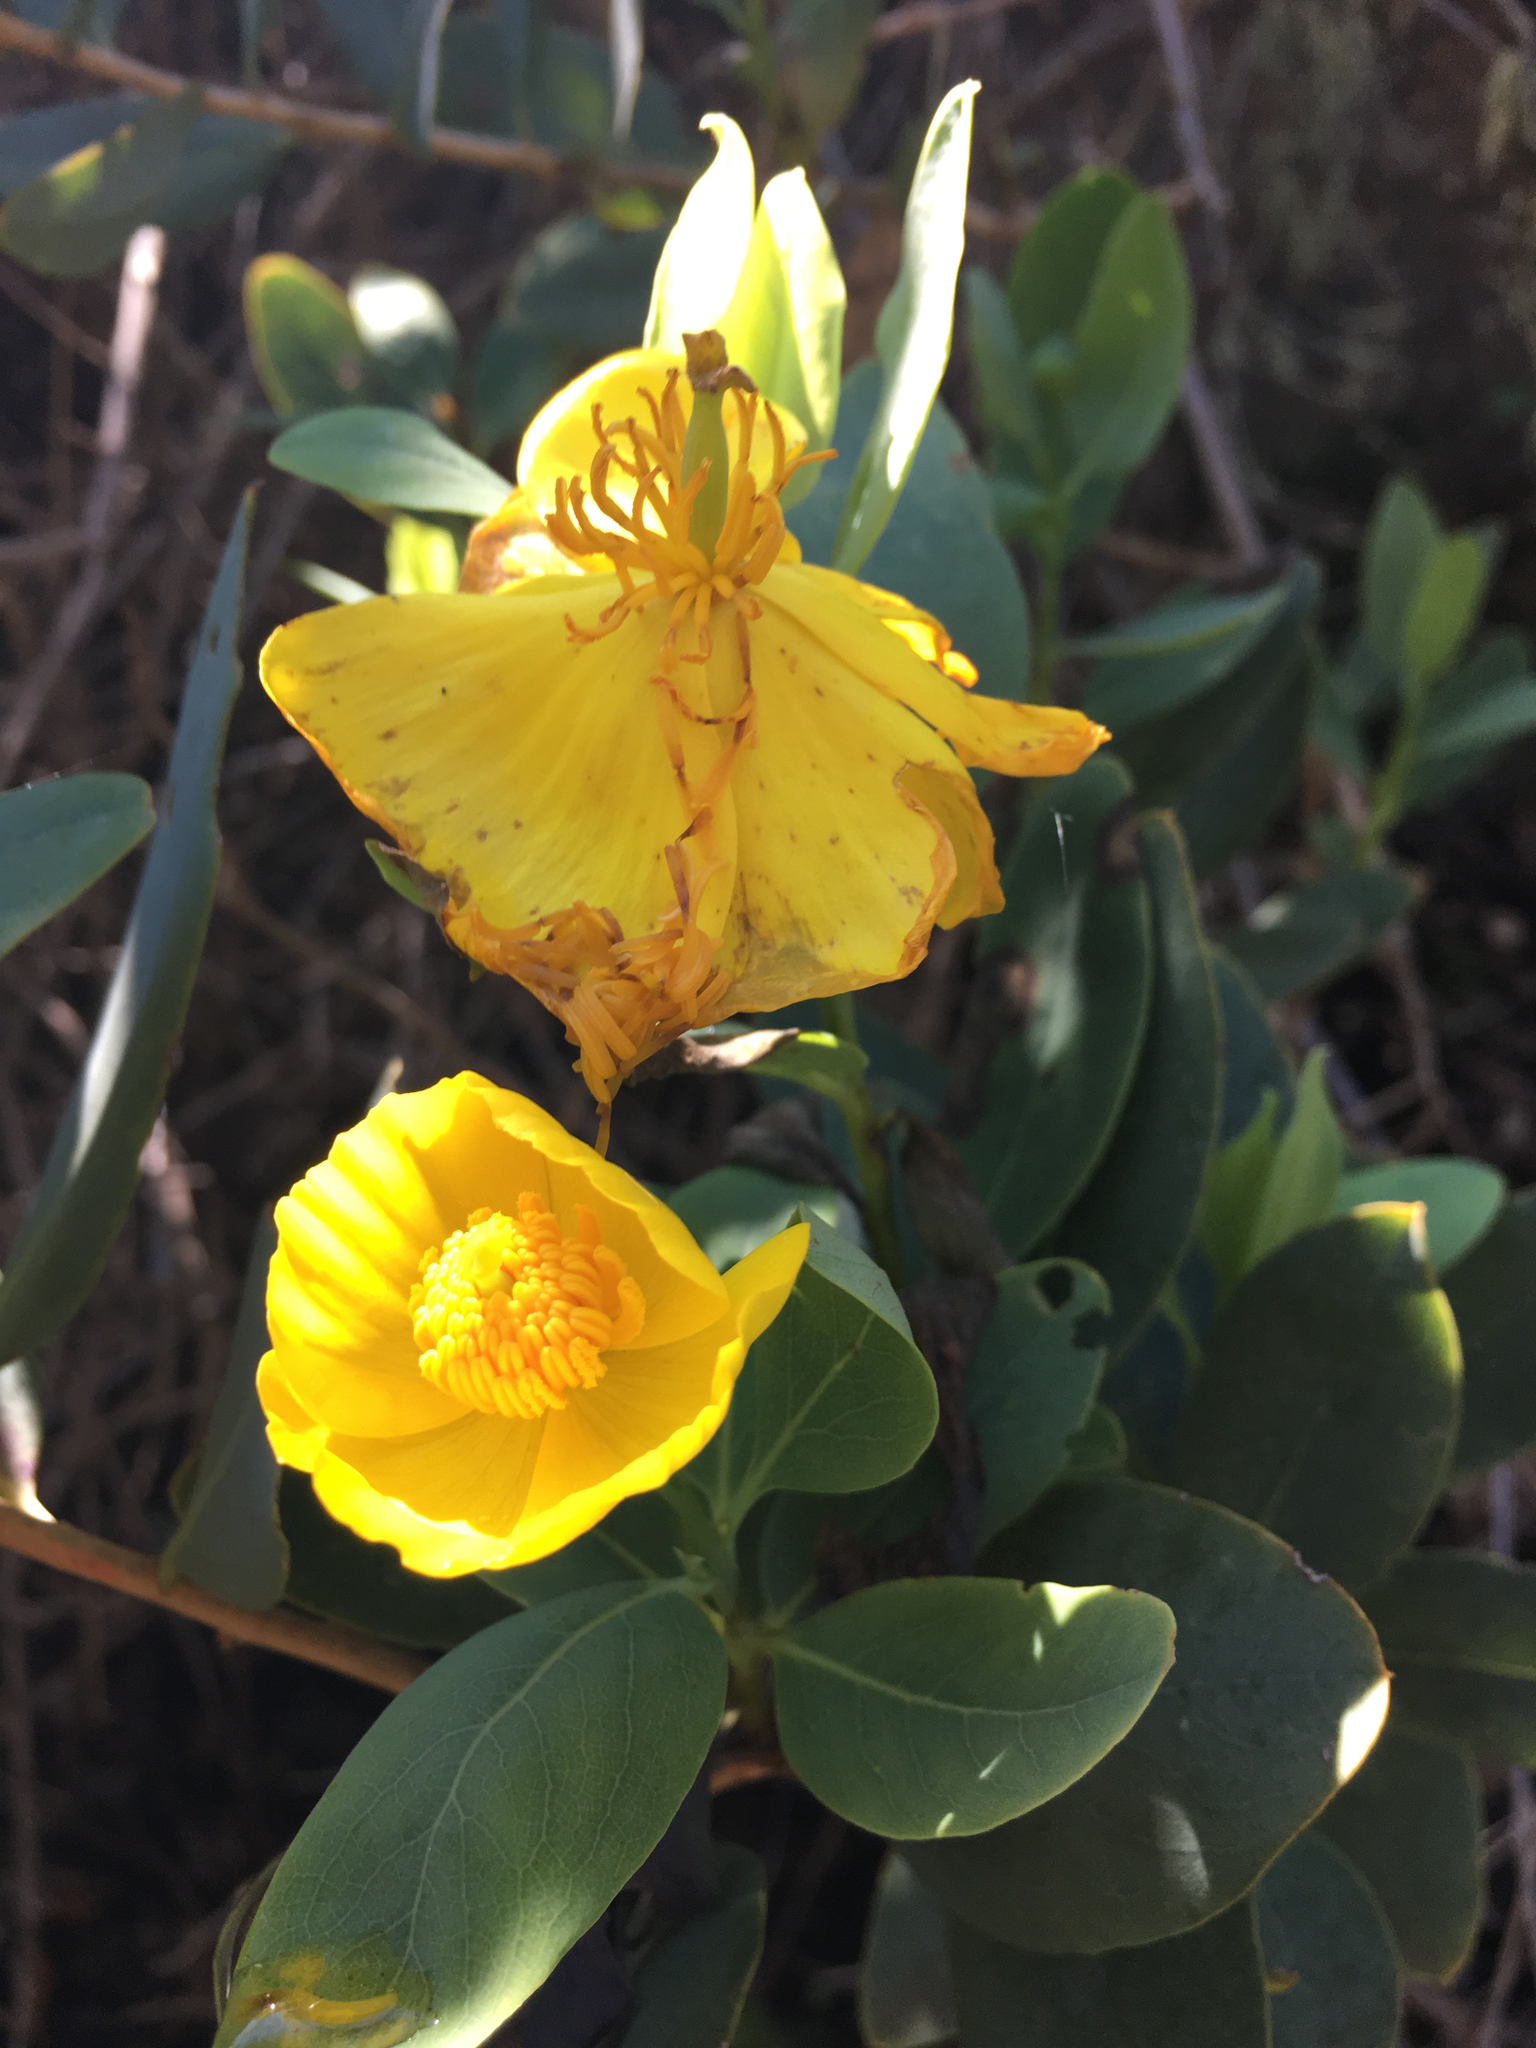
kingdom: Plantae
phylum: Tracheophyta
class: Magnoliopsida
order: Ranunculales
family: Papaveraceae
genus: Dendromecon
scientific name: Dendromecon harfordii
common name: Island tree-poppy
